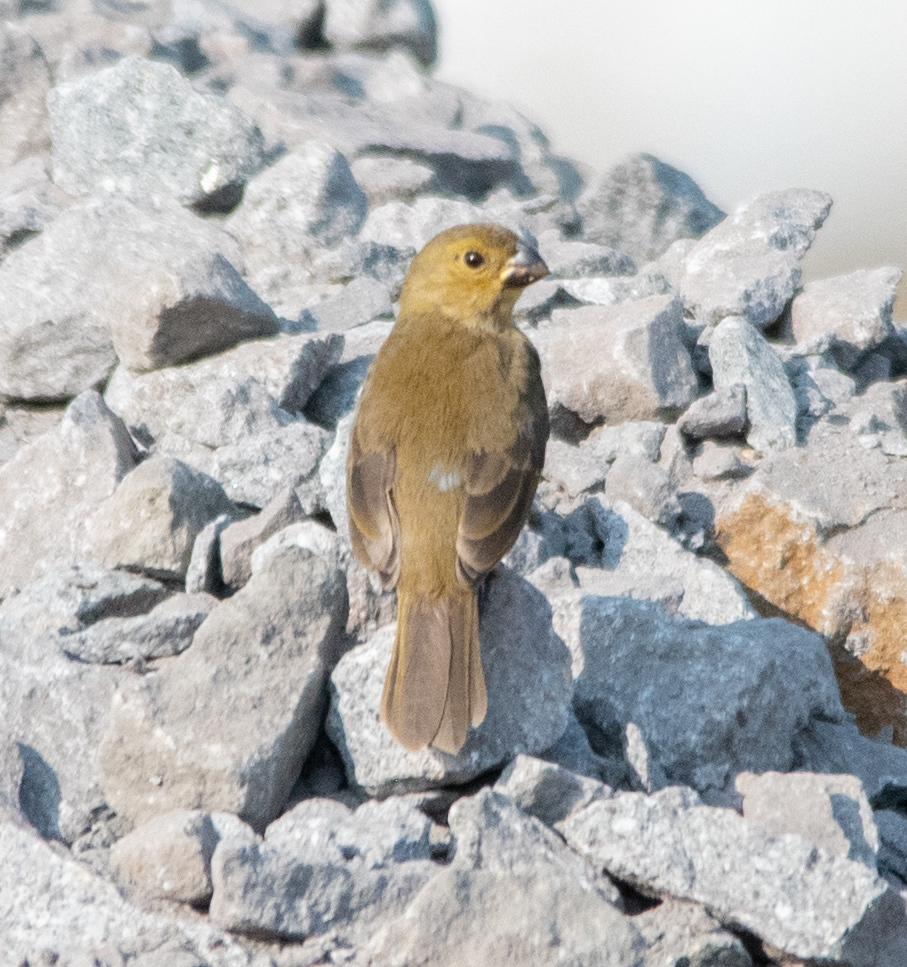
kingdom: Animalia
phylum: Chordata
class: Aves
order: Passeriformes
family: Thraupidae
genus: Sporophila
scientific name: Sporophila corvina
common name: Variable seedeater
